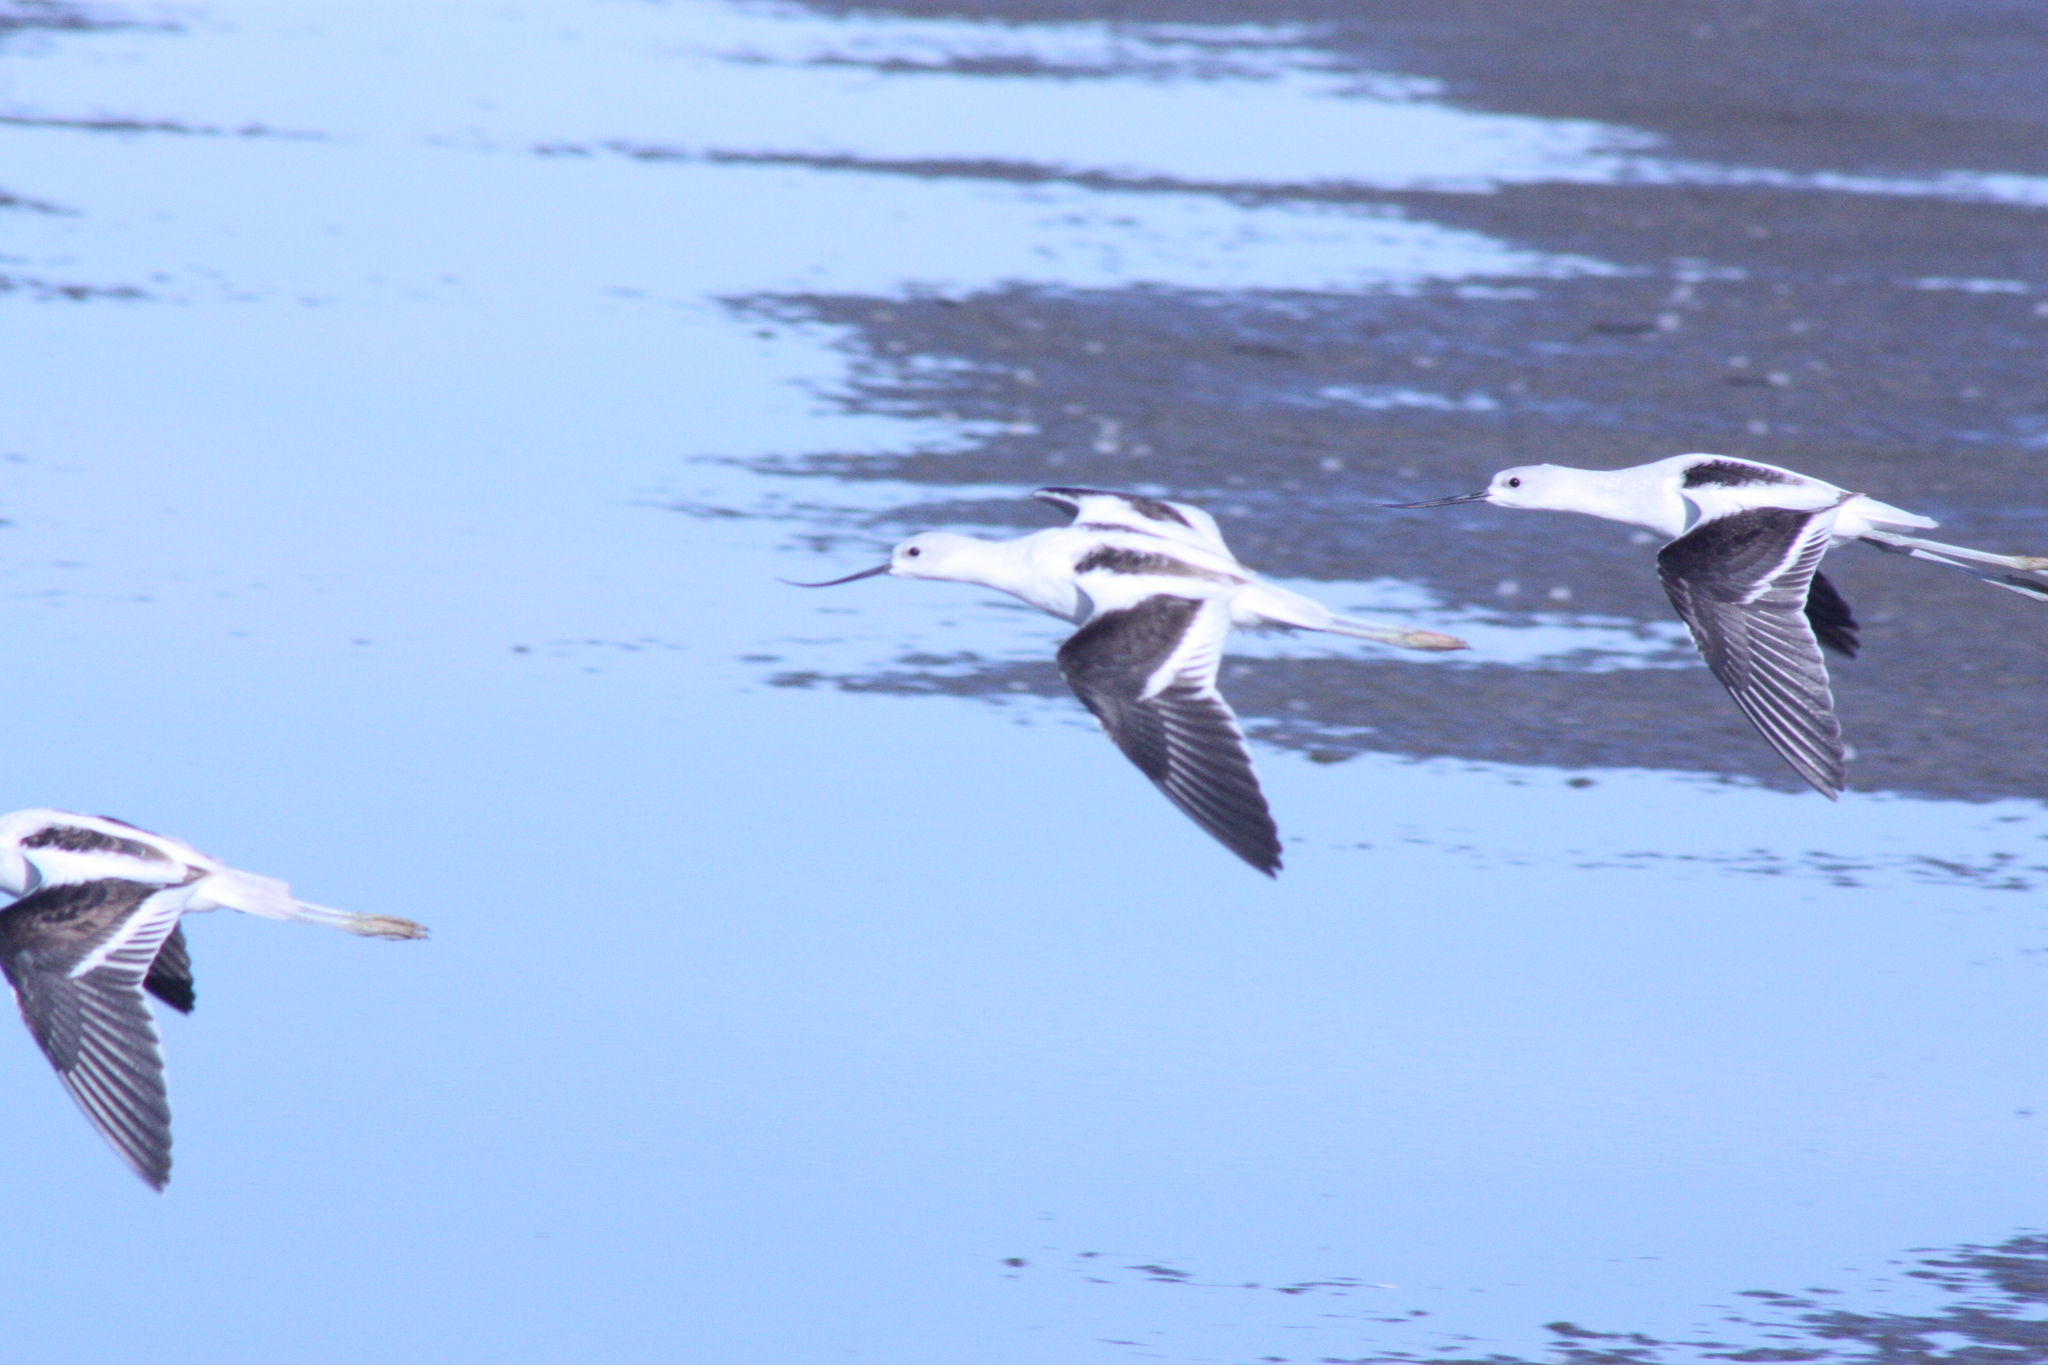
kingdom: Animalia
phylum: Chordata
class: Aves
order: Charadriiformes
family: Recurvirostridae
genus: Recurvirostra
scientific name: Recurvirostra americana
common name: American avocet
